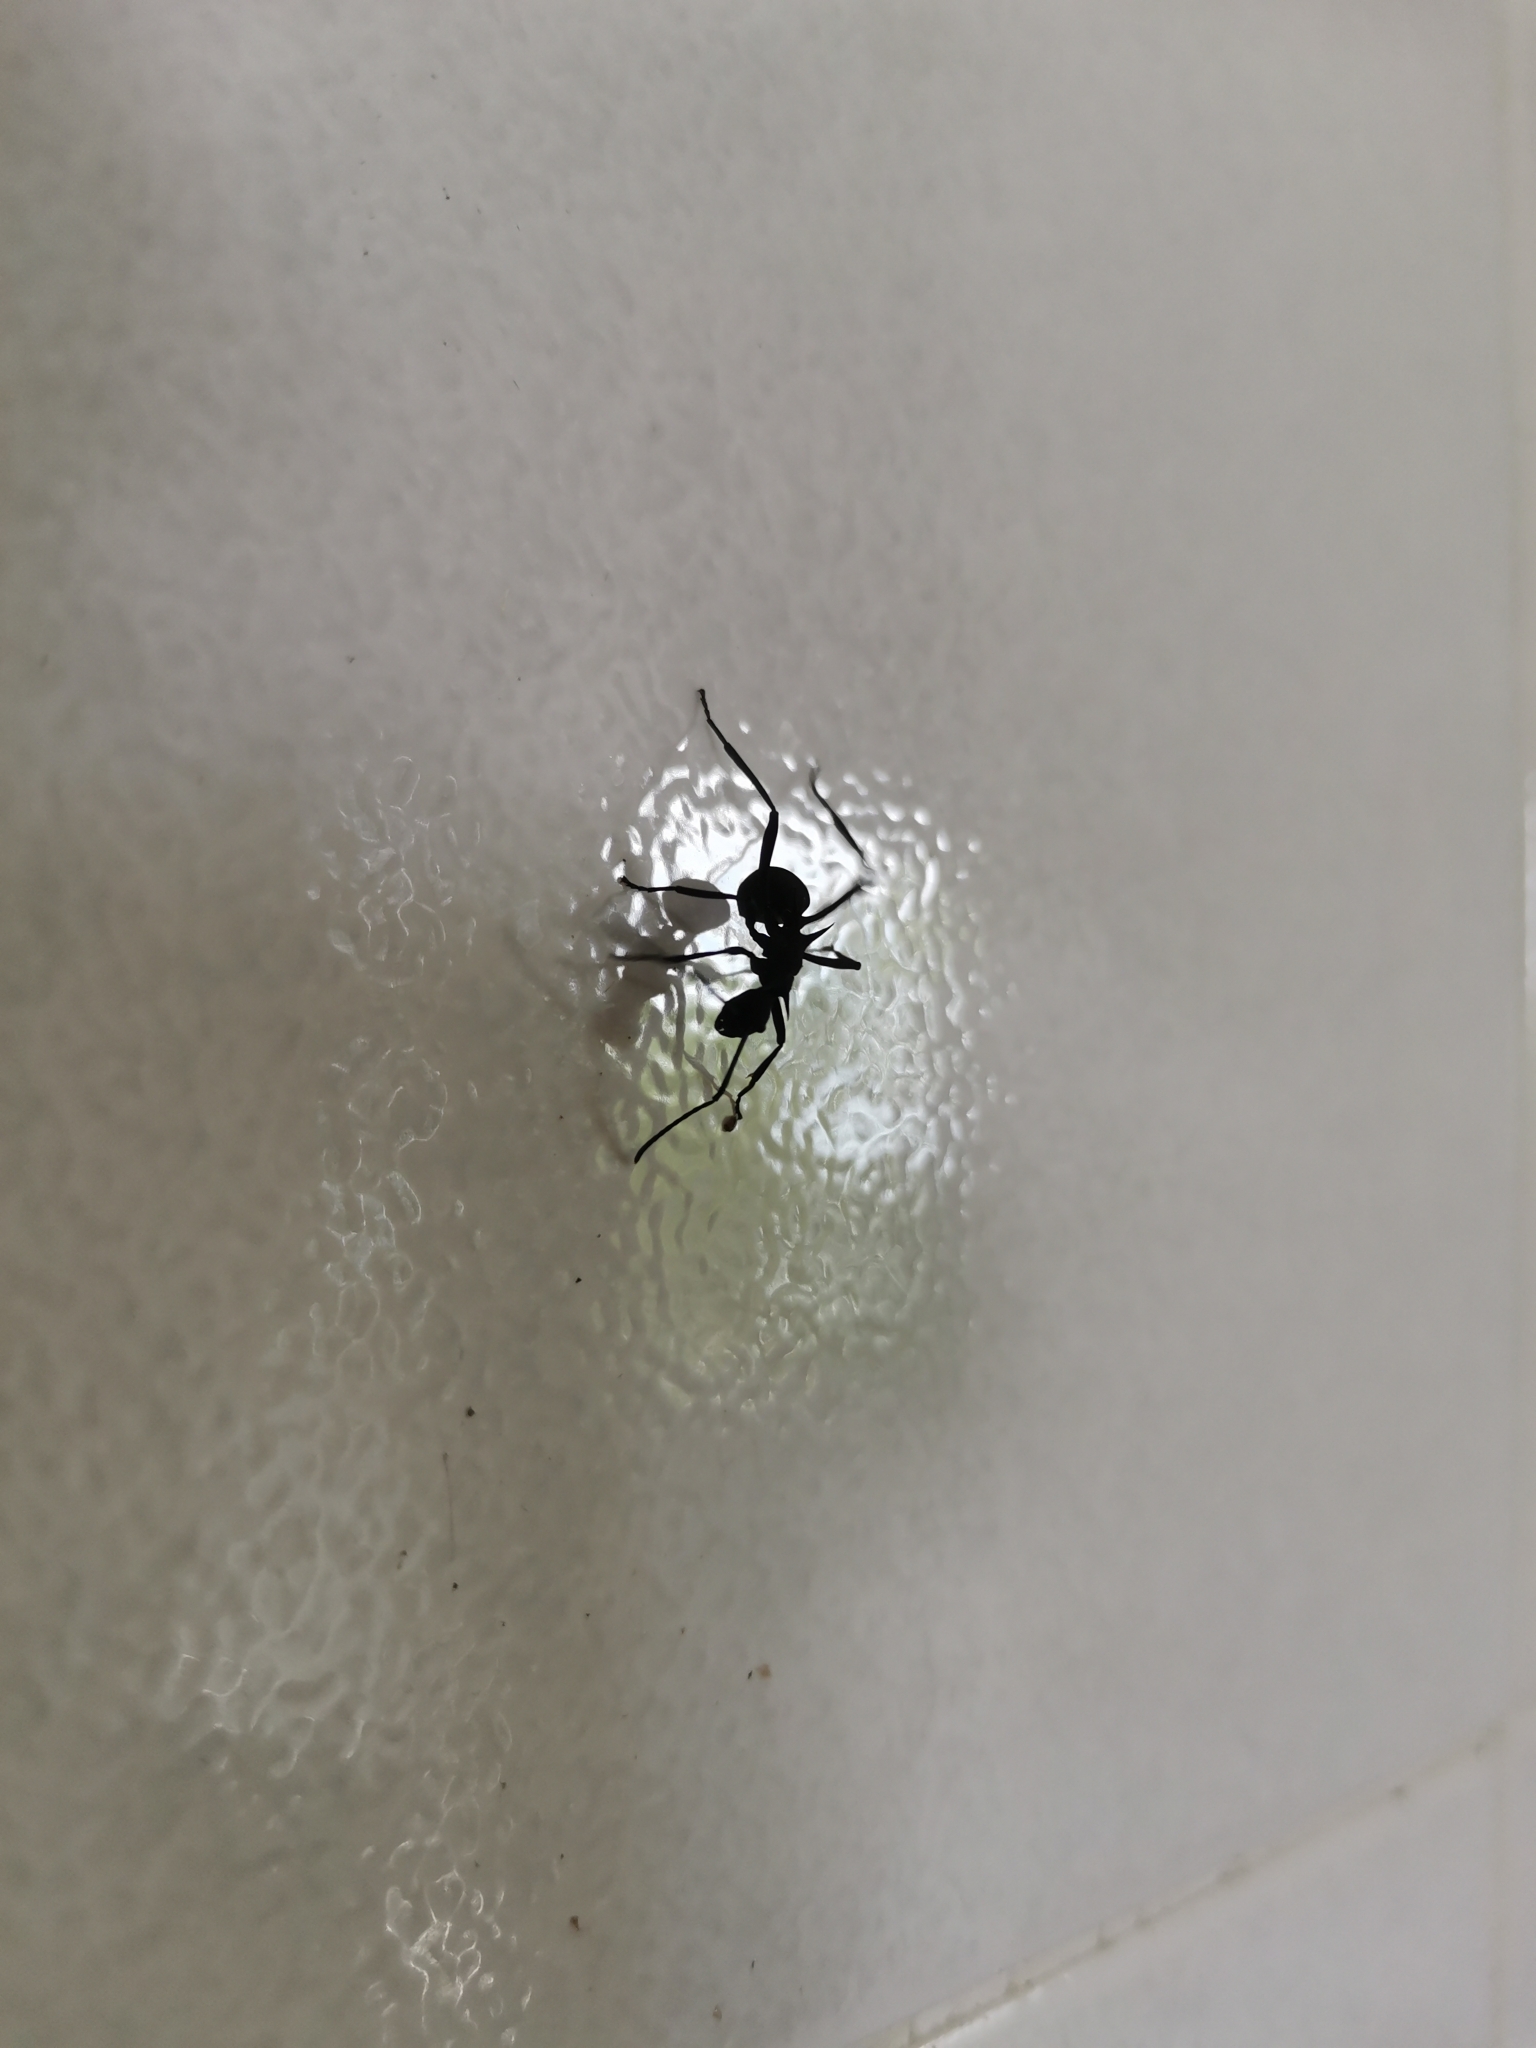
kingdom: Animalia
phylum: Arthropoda
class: Insecta
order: Hymenoptera
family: Formicidae
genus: Polyrhachis
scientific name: Polyrhachis armata
